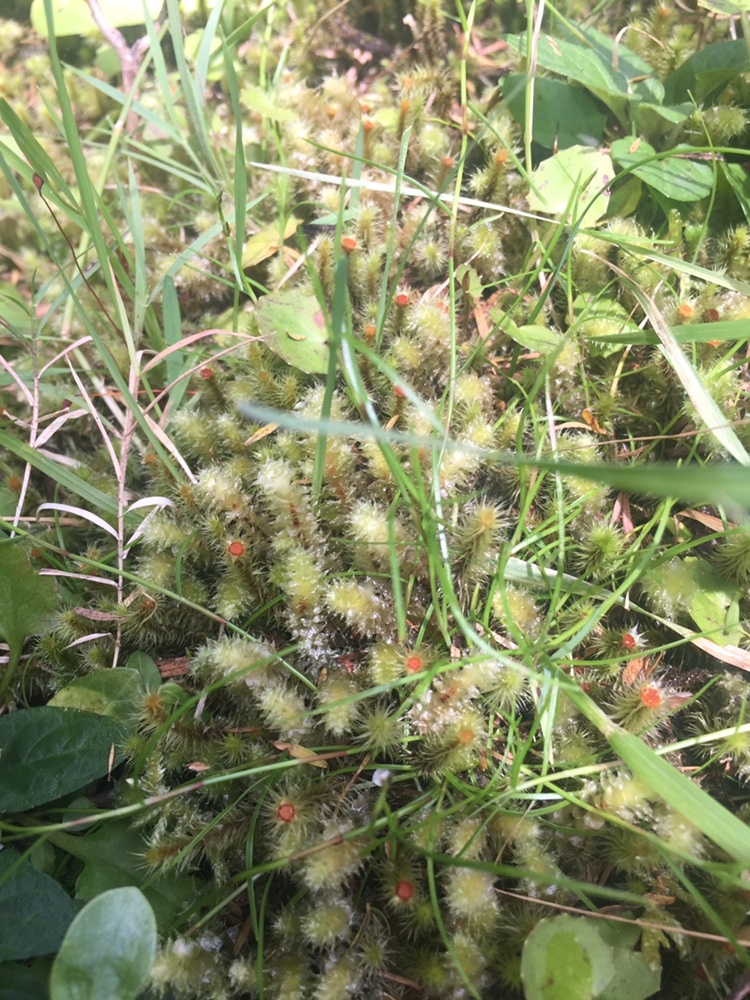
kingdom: Plantae
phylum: Bryophyta
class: Bryopsida
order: Bartramiales
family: Bartramiaceae
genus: Breutelia
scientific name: Breutelia pendula
